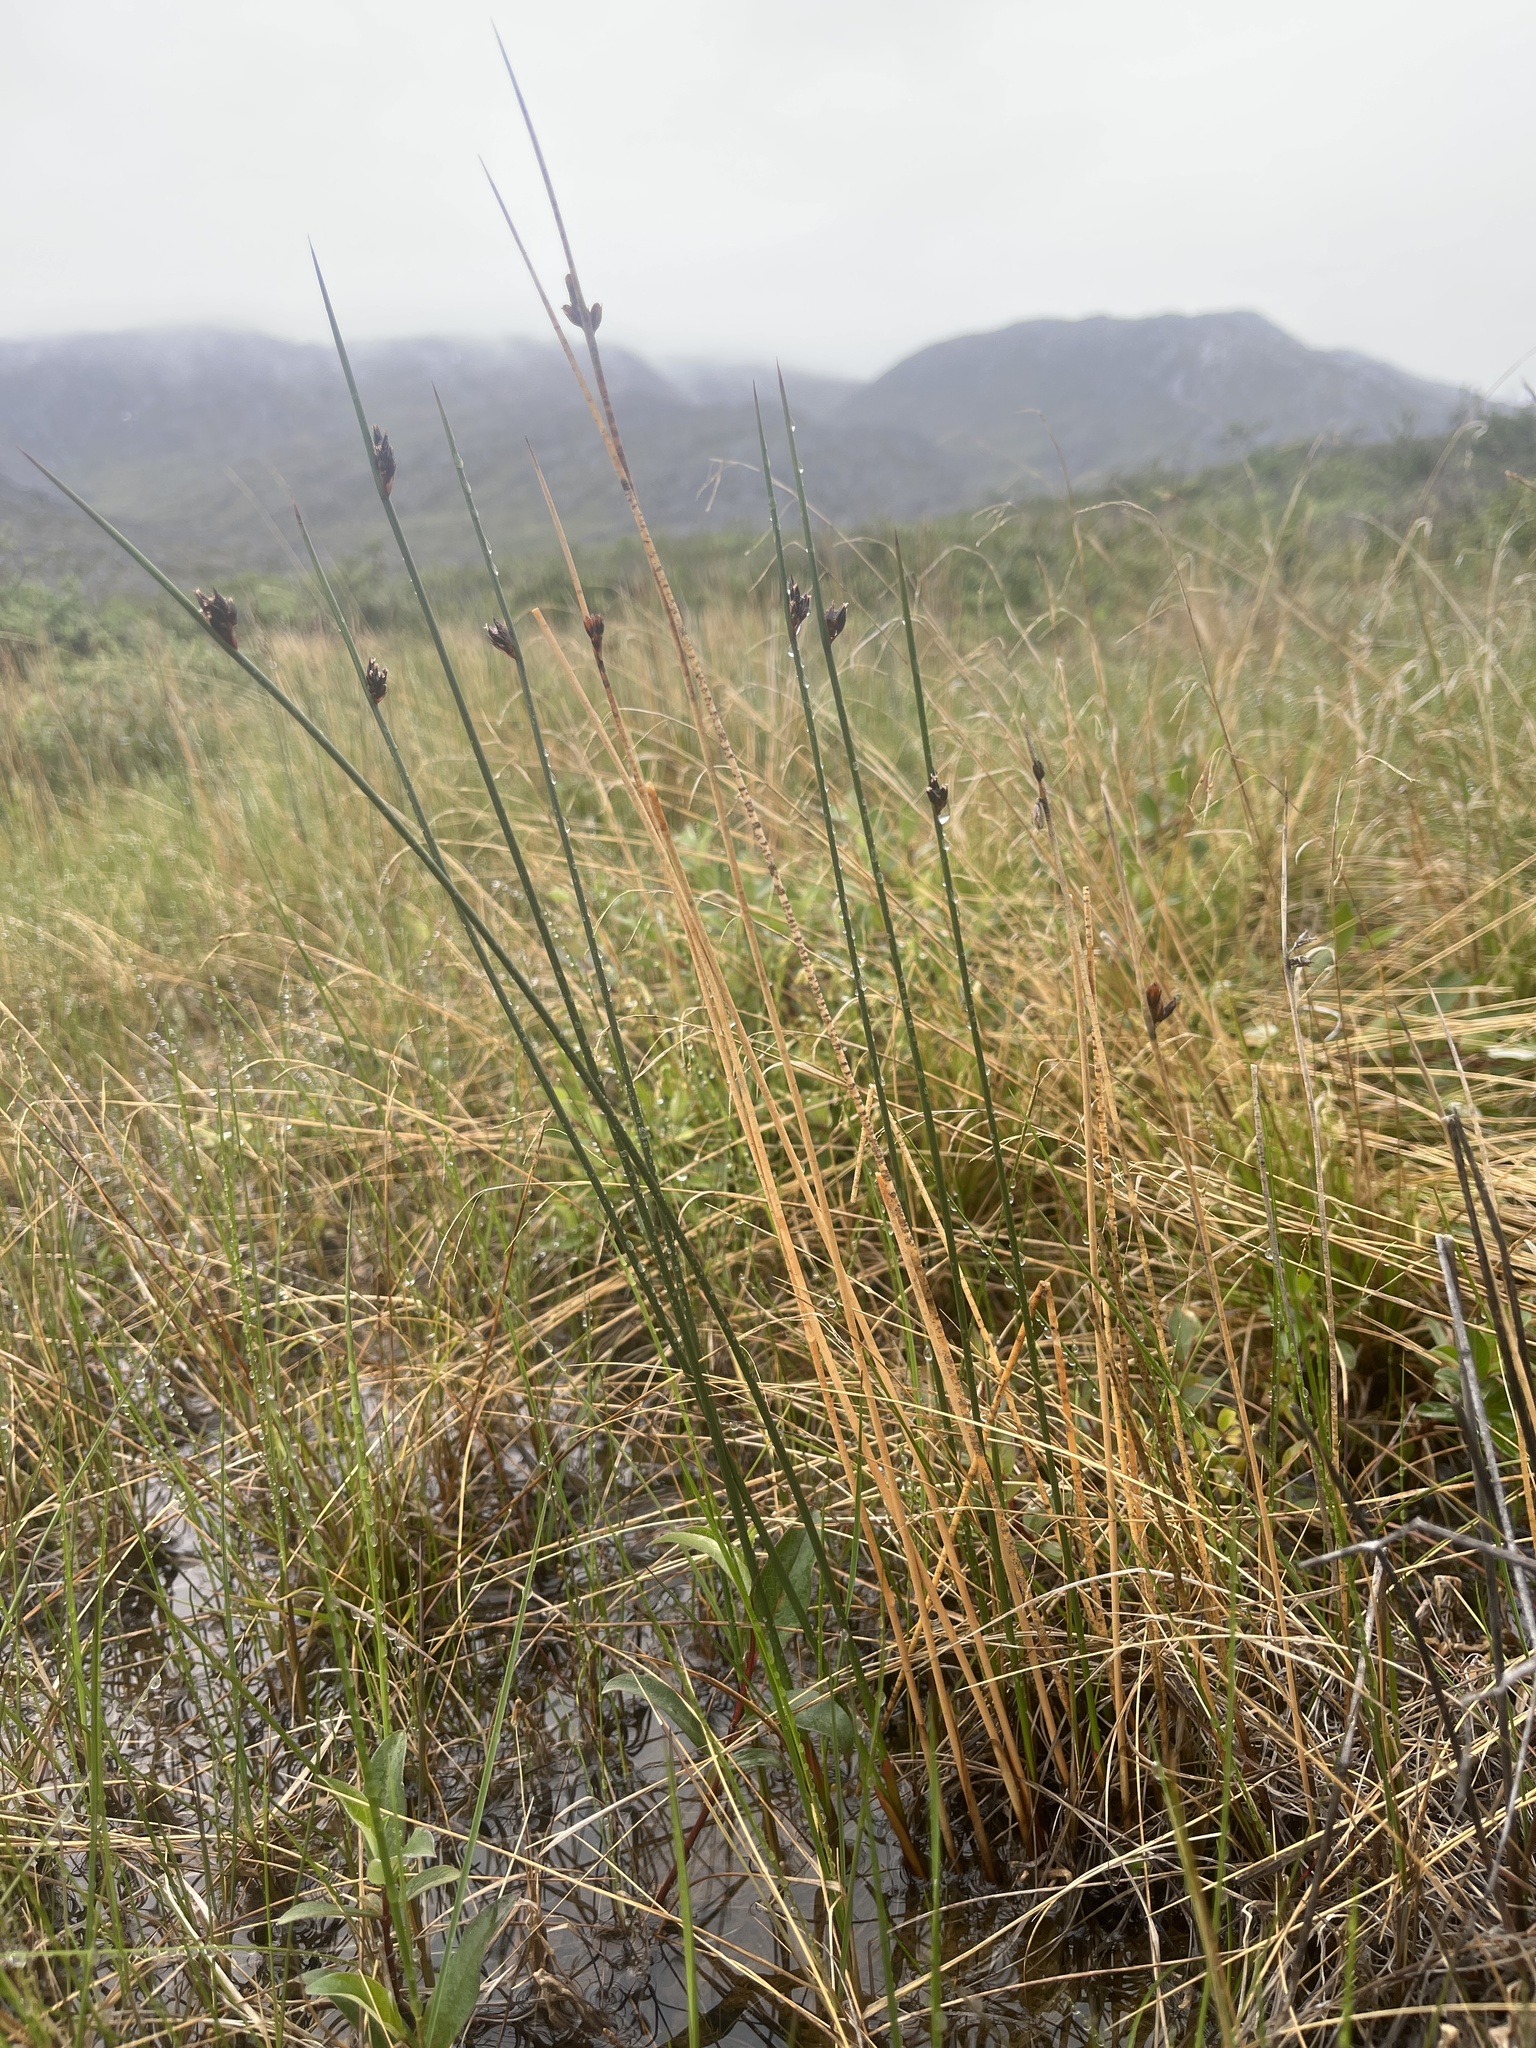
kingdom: Plantae
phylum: Tracheophyta
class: Liliopsida
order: Poales
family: Juncaceae
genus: Juncus
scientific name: Juncus arcticus
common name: Arctic rush
